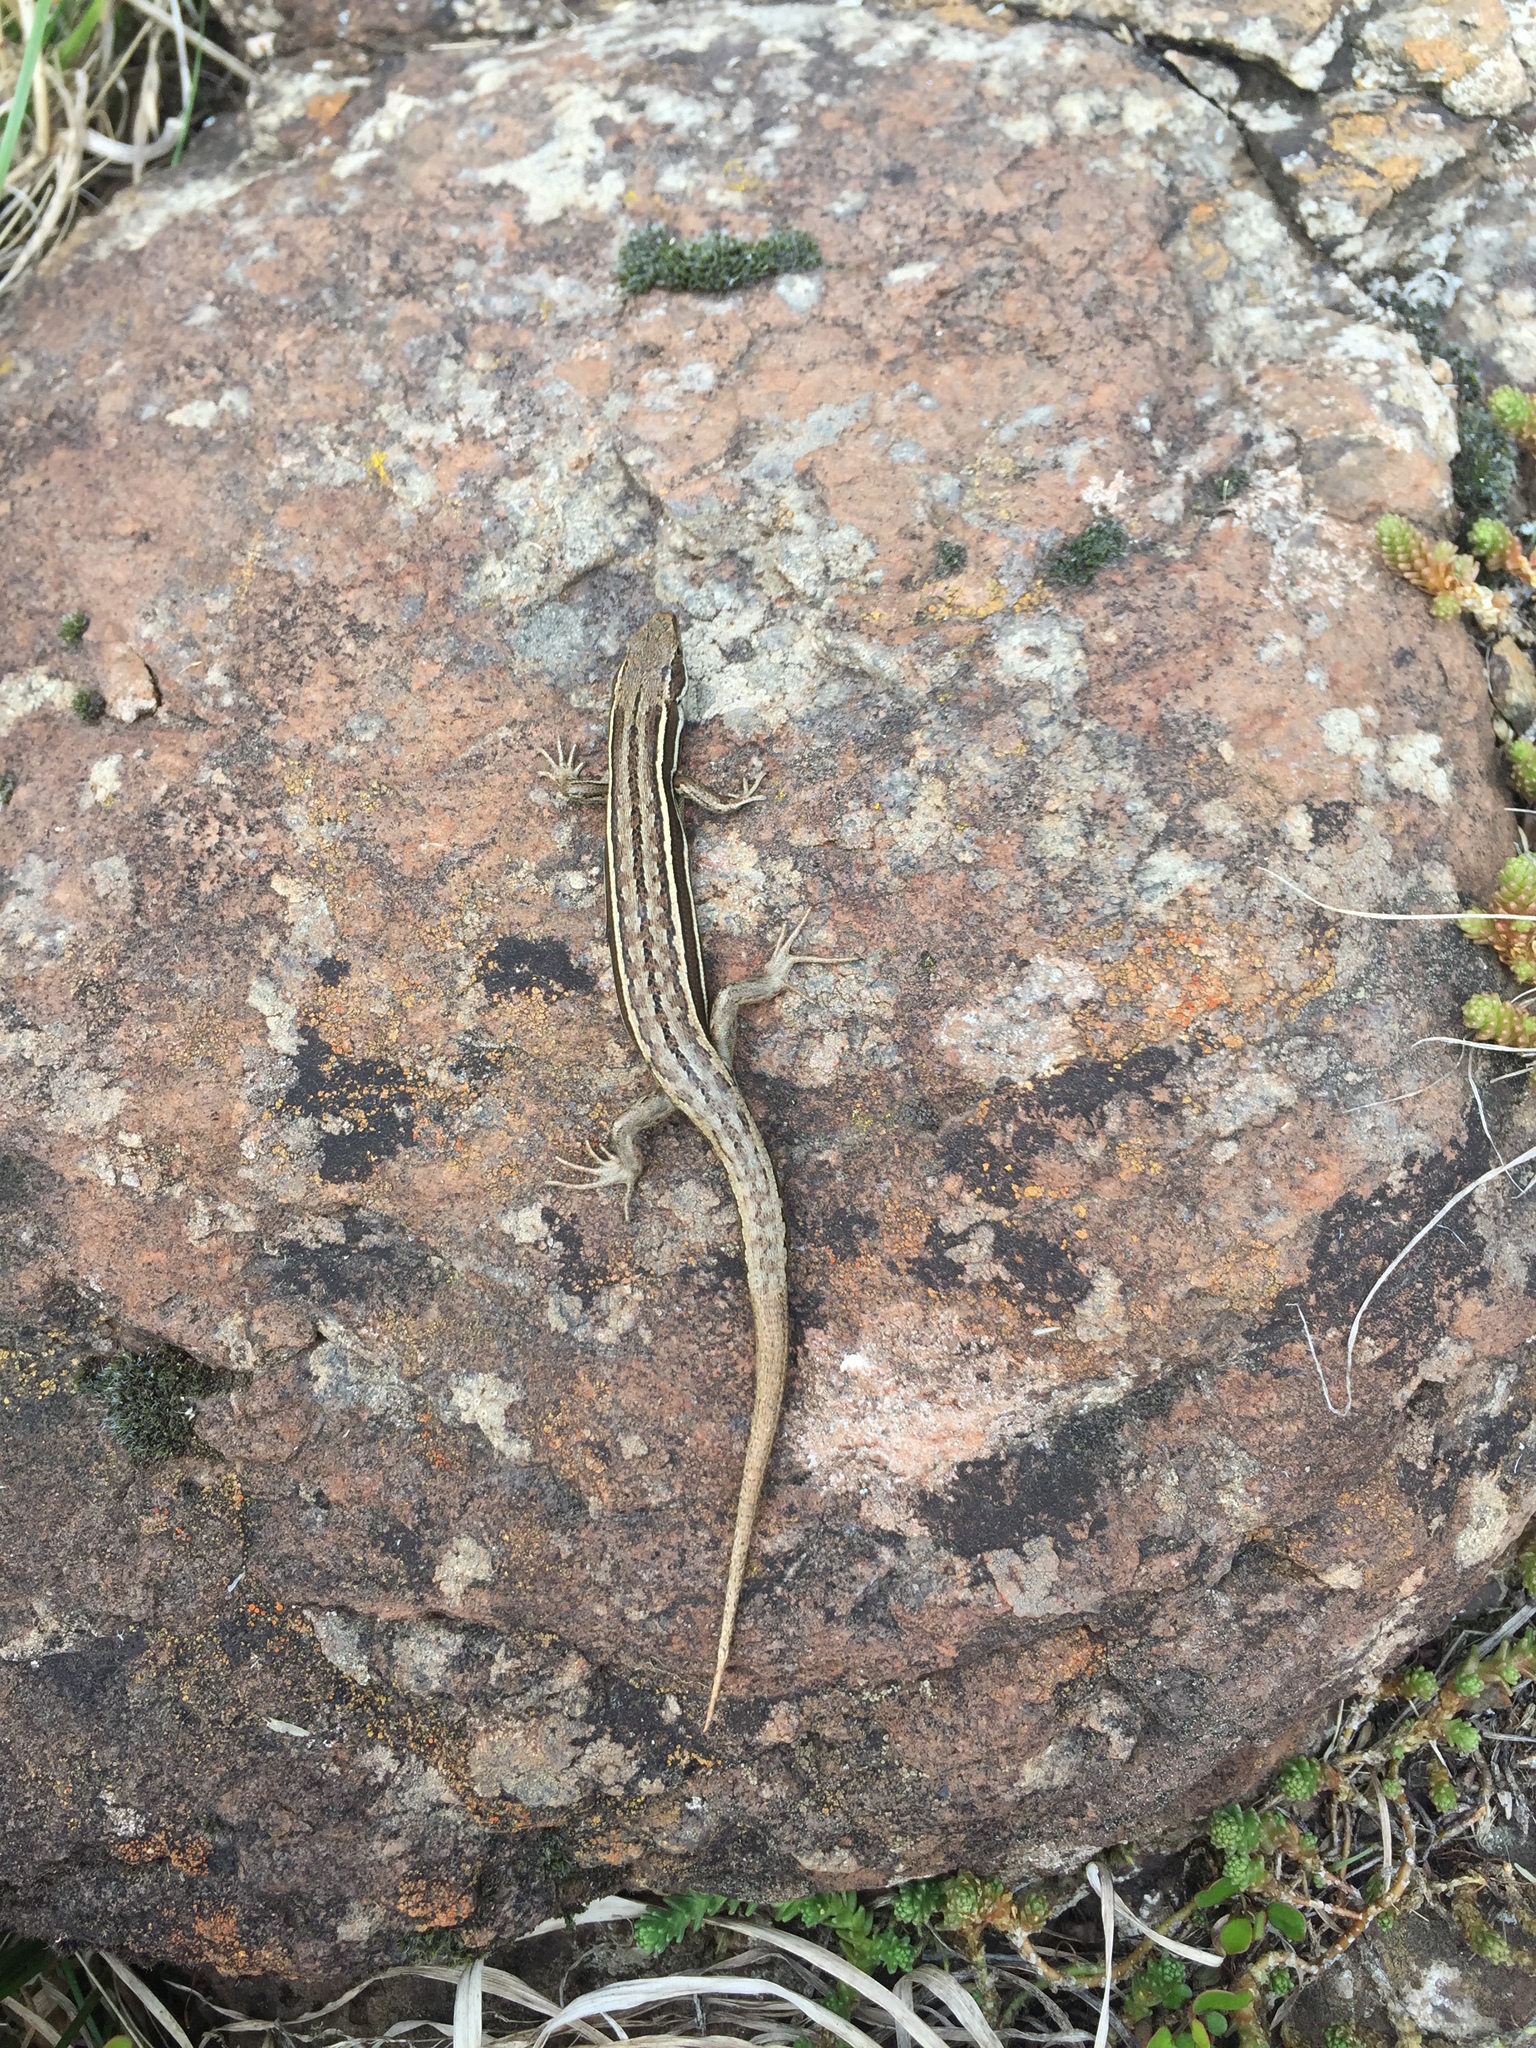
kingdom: Animalia
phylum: Chordata
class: Squamata
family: Scincidae
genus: Oligosoma
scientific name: Oligosoma maccanni
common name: Mccann’s skink
